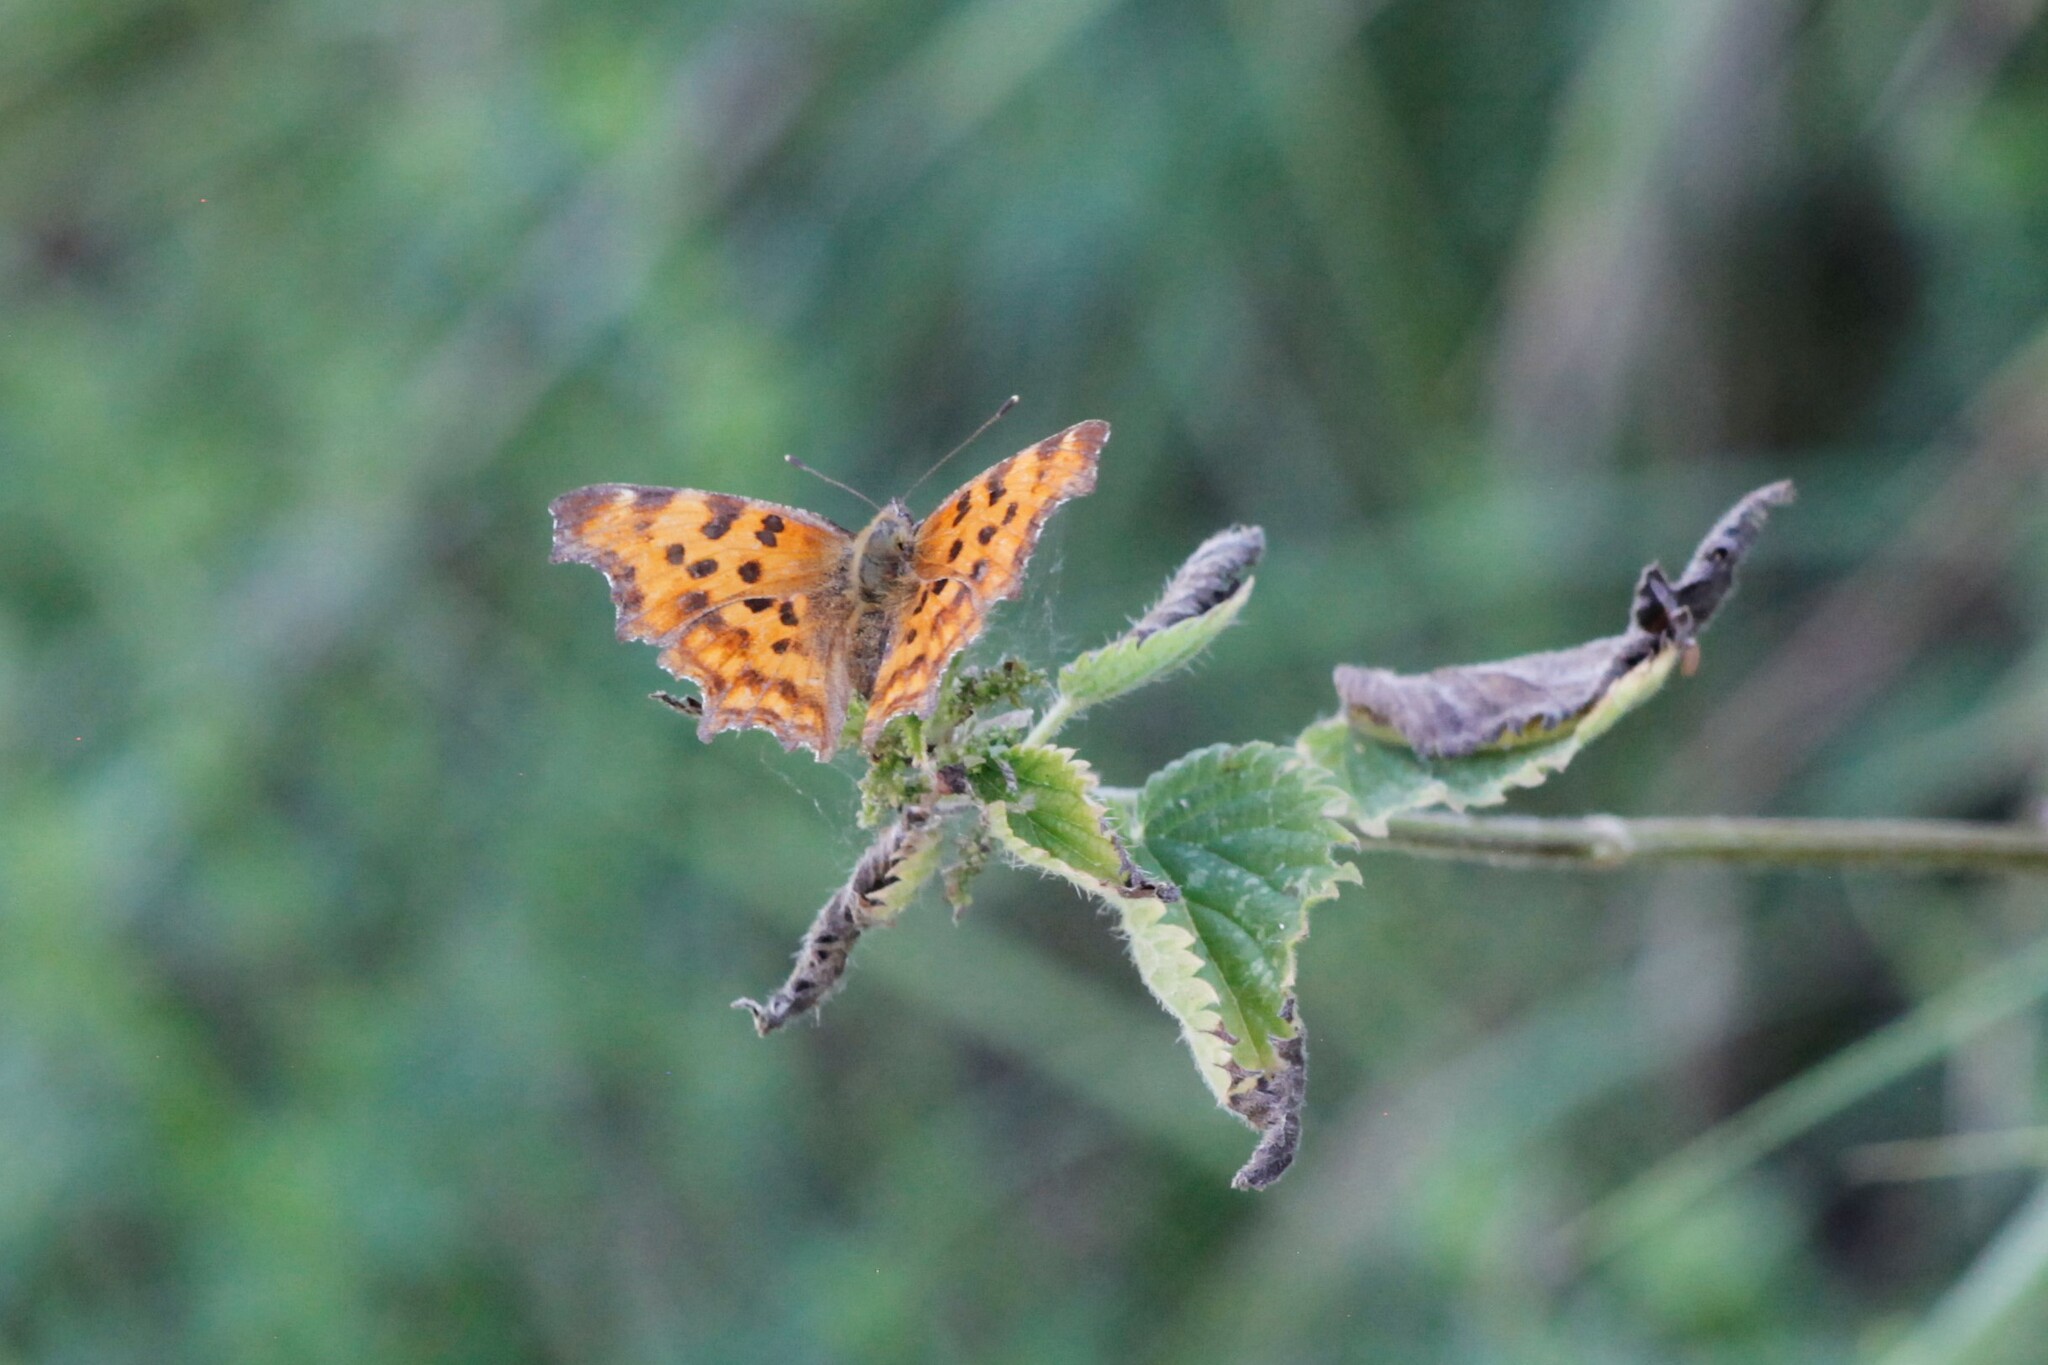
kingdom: Animalia
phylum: Arthropoda
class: Insecta
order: Lepidoptera
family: Nymphalidae
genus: Polygonia
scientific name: Polygonia c-album
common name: Comma
